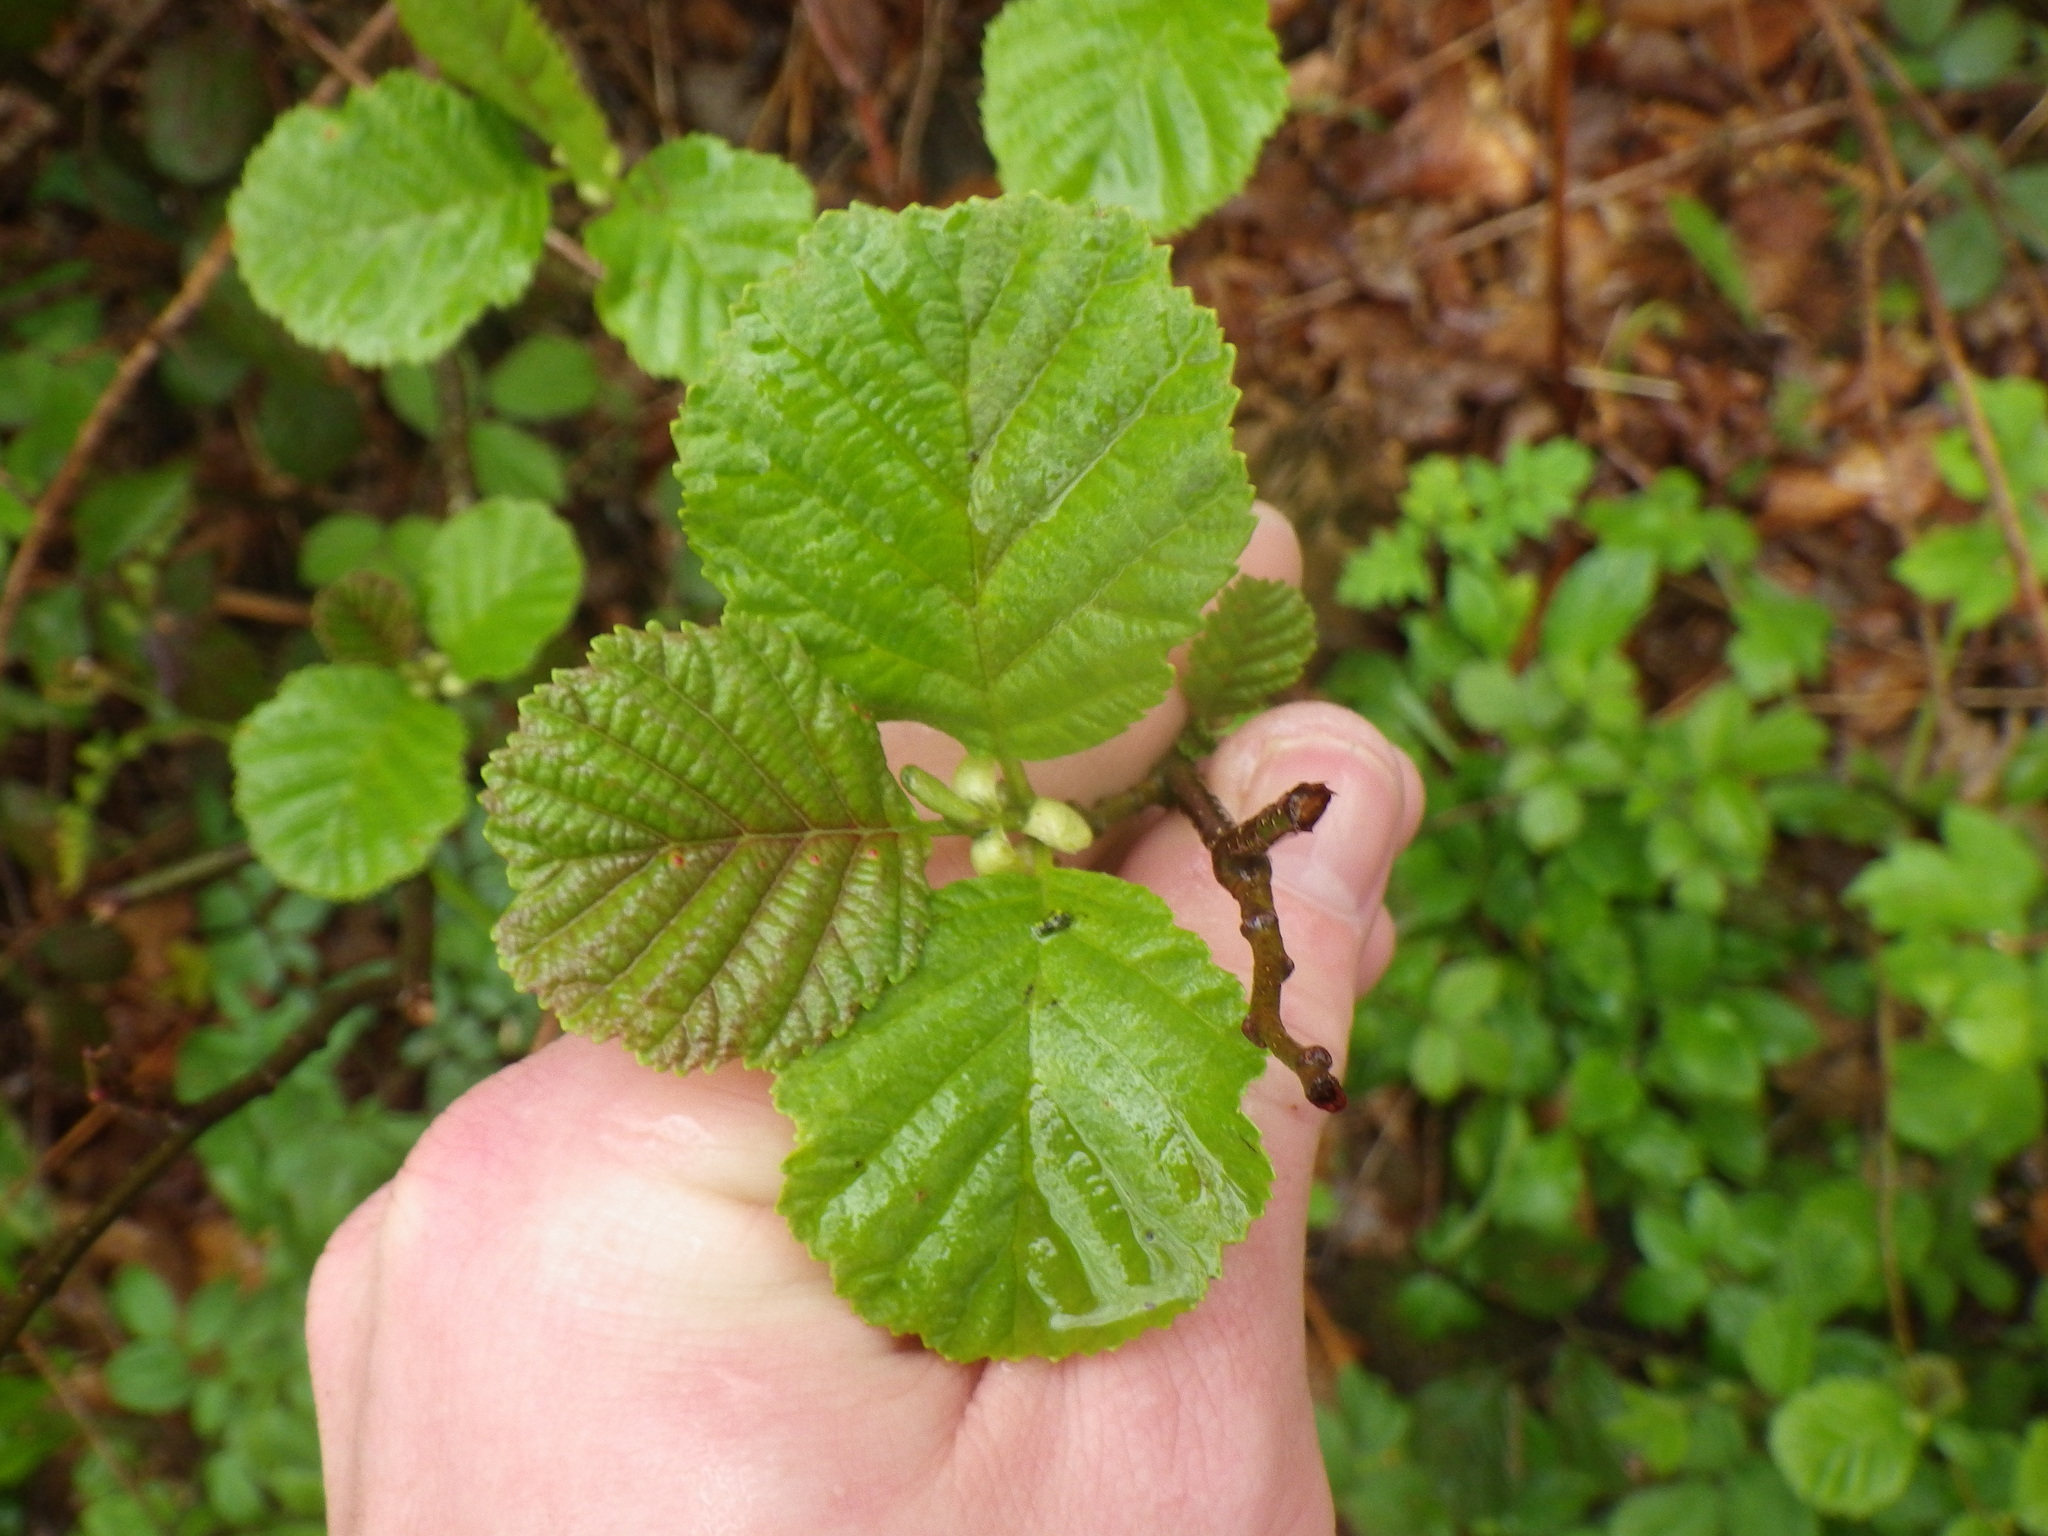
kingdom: Plantae
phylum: Tracheophyta
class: Magnoliopsida
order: Fagales
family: Betulaceae
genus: Alnus
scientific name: Alnus glutinosa
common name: Black alder
